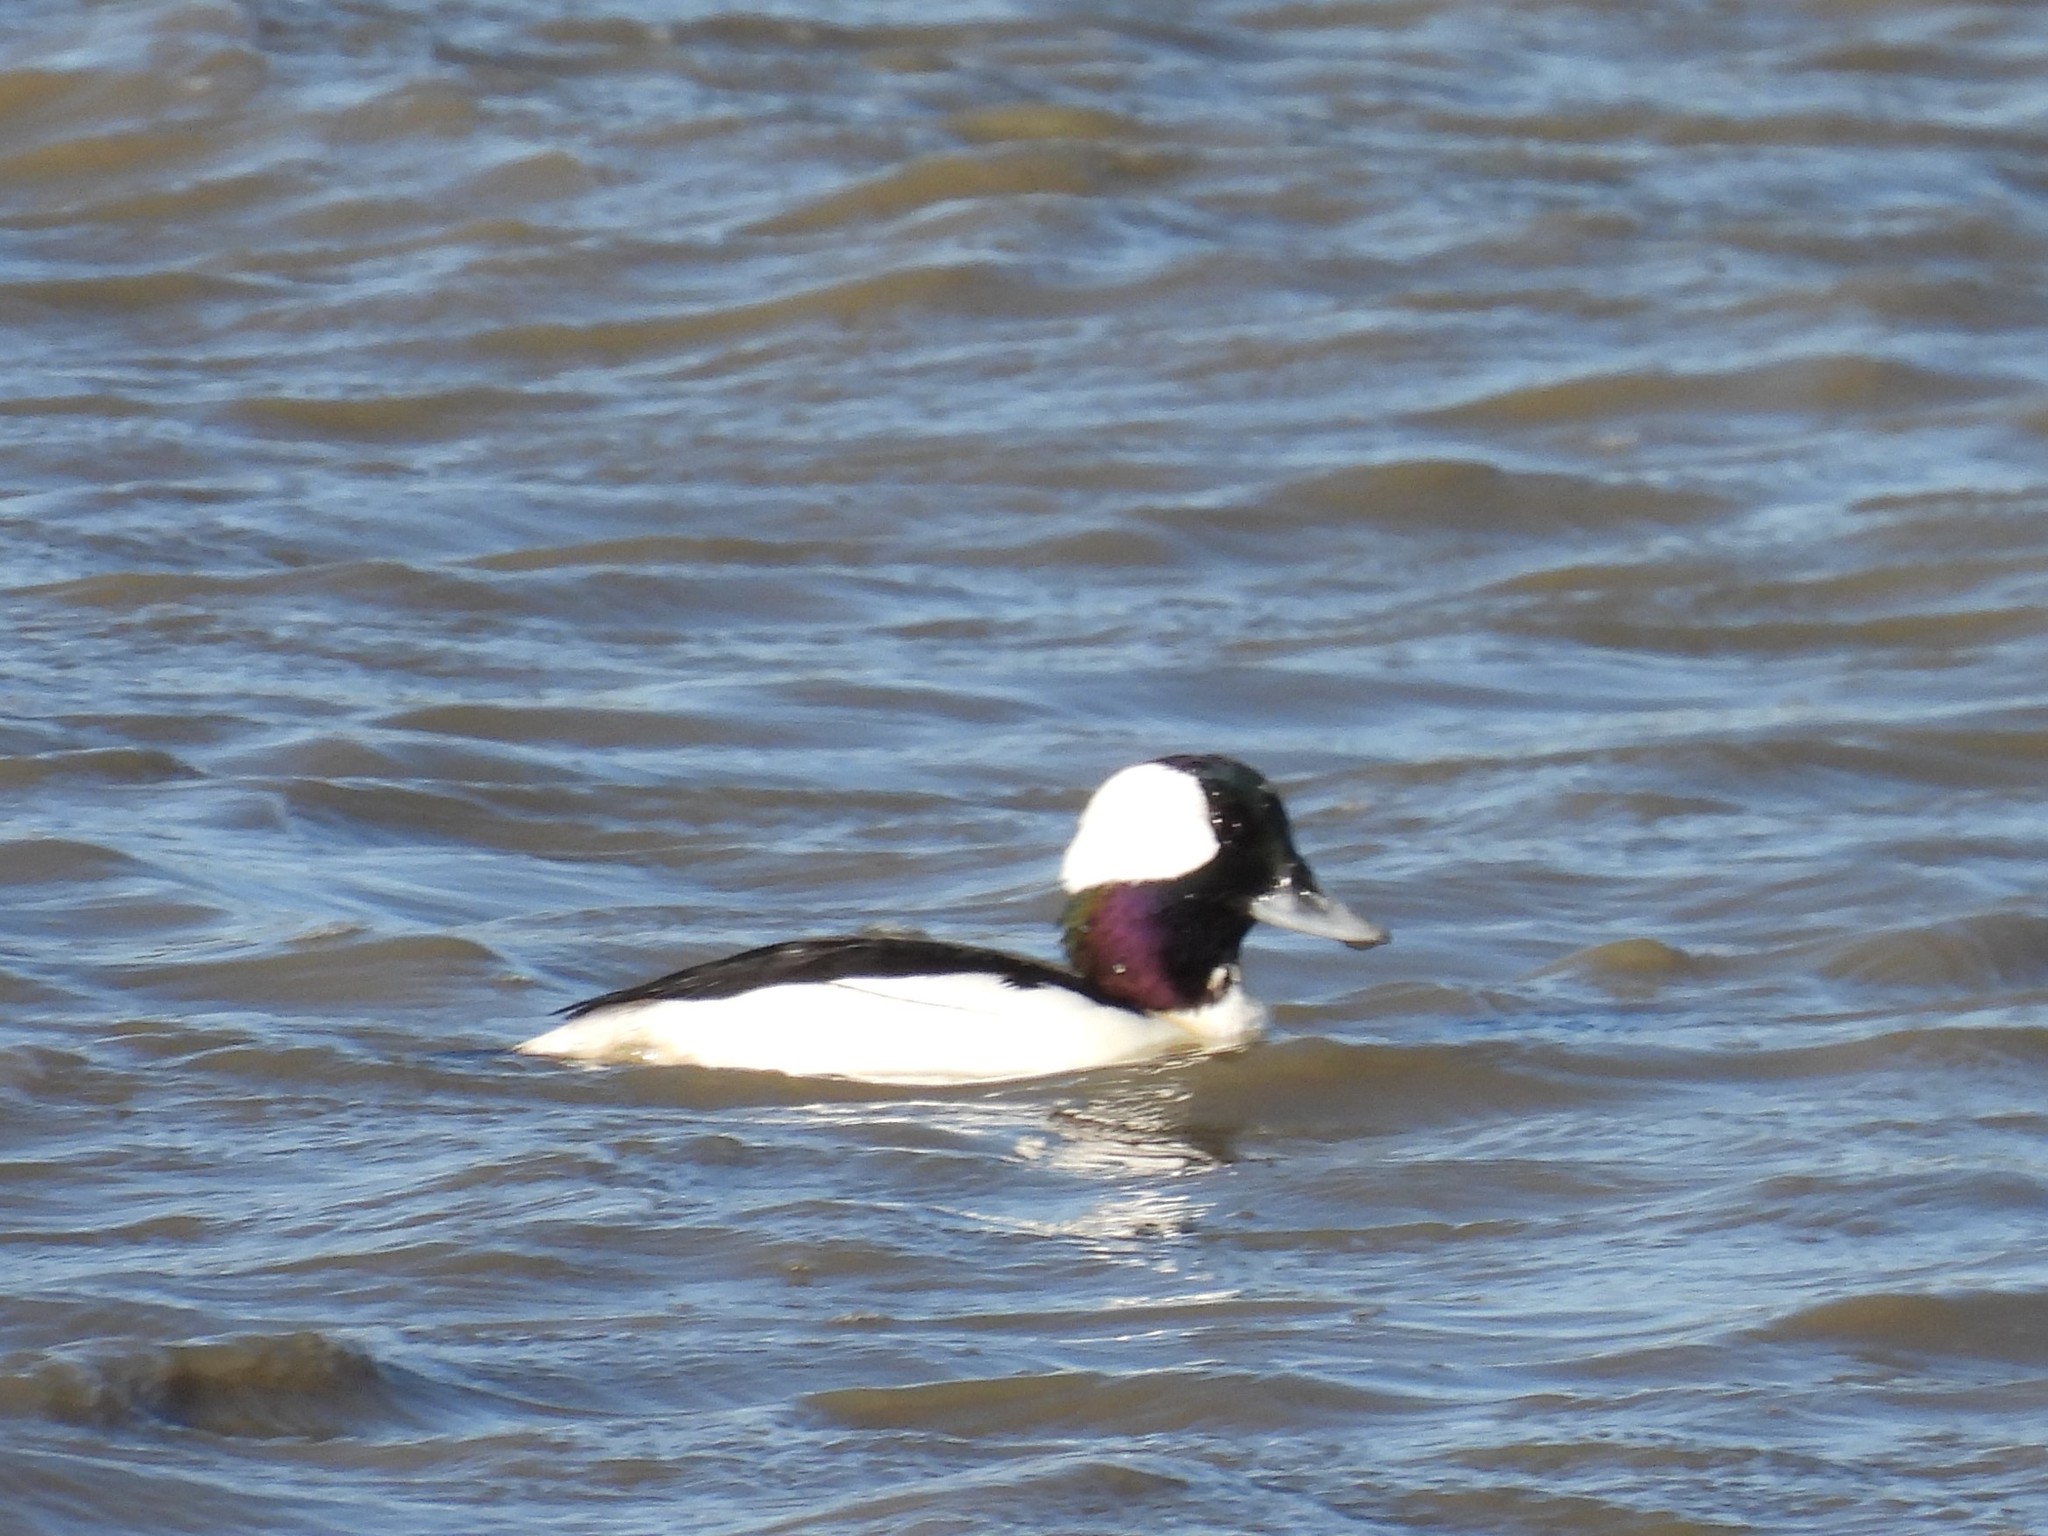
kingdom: Animalia
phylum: Chordata
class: Aves
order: Anseriformes
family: Anatidae
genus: Bucephala
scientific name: Bucephala albeola
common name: Bufflehead
